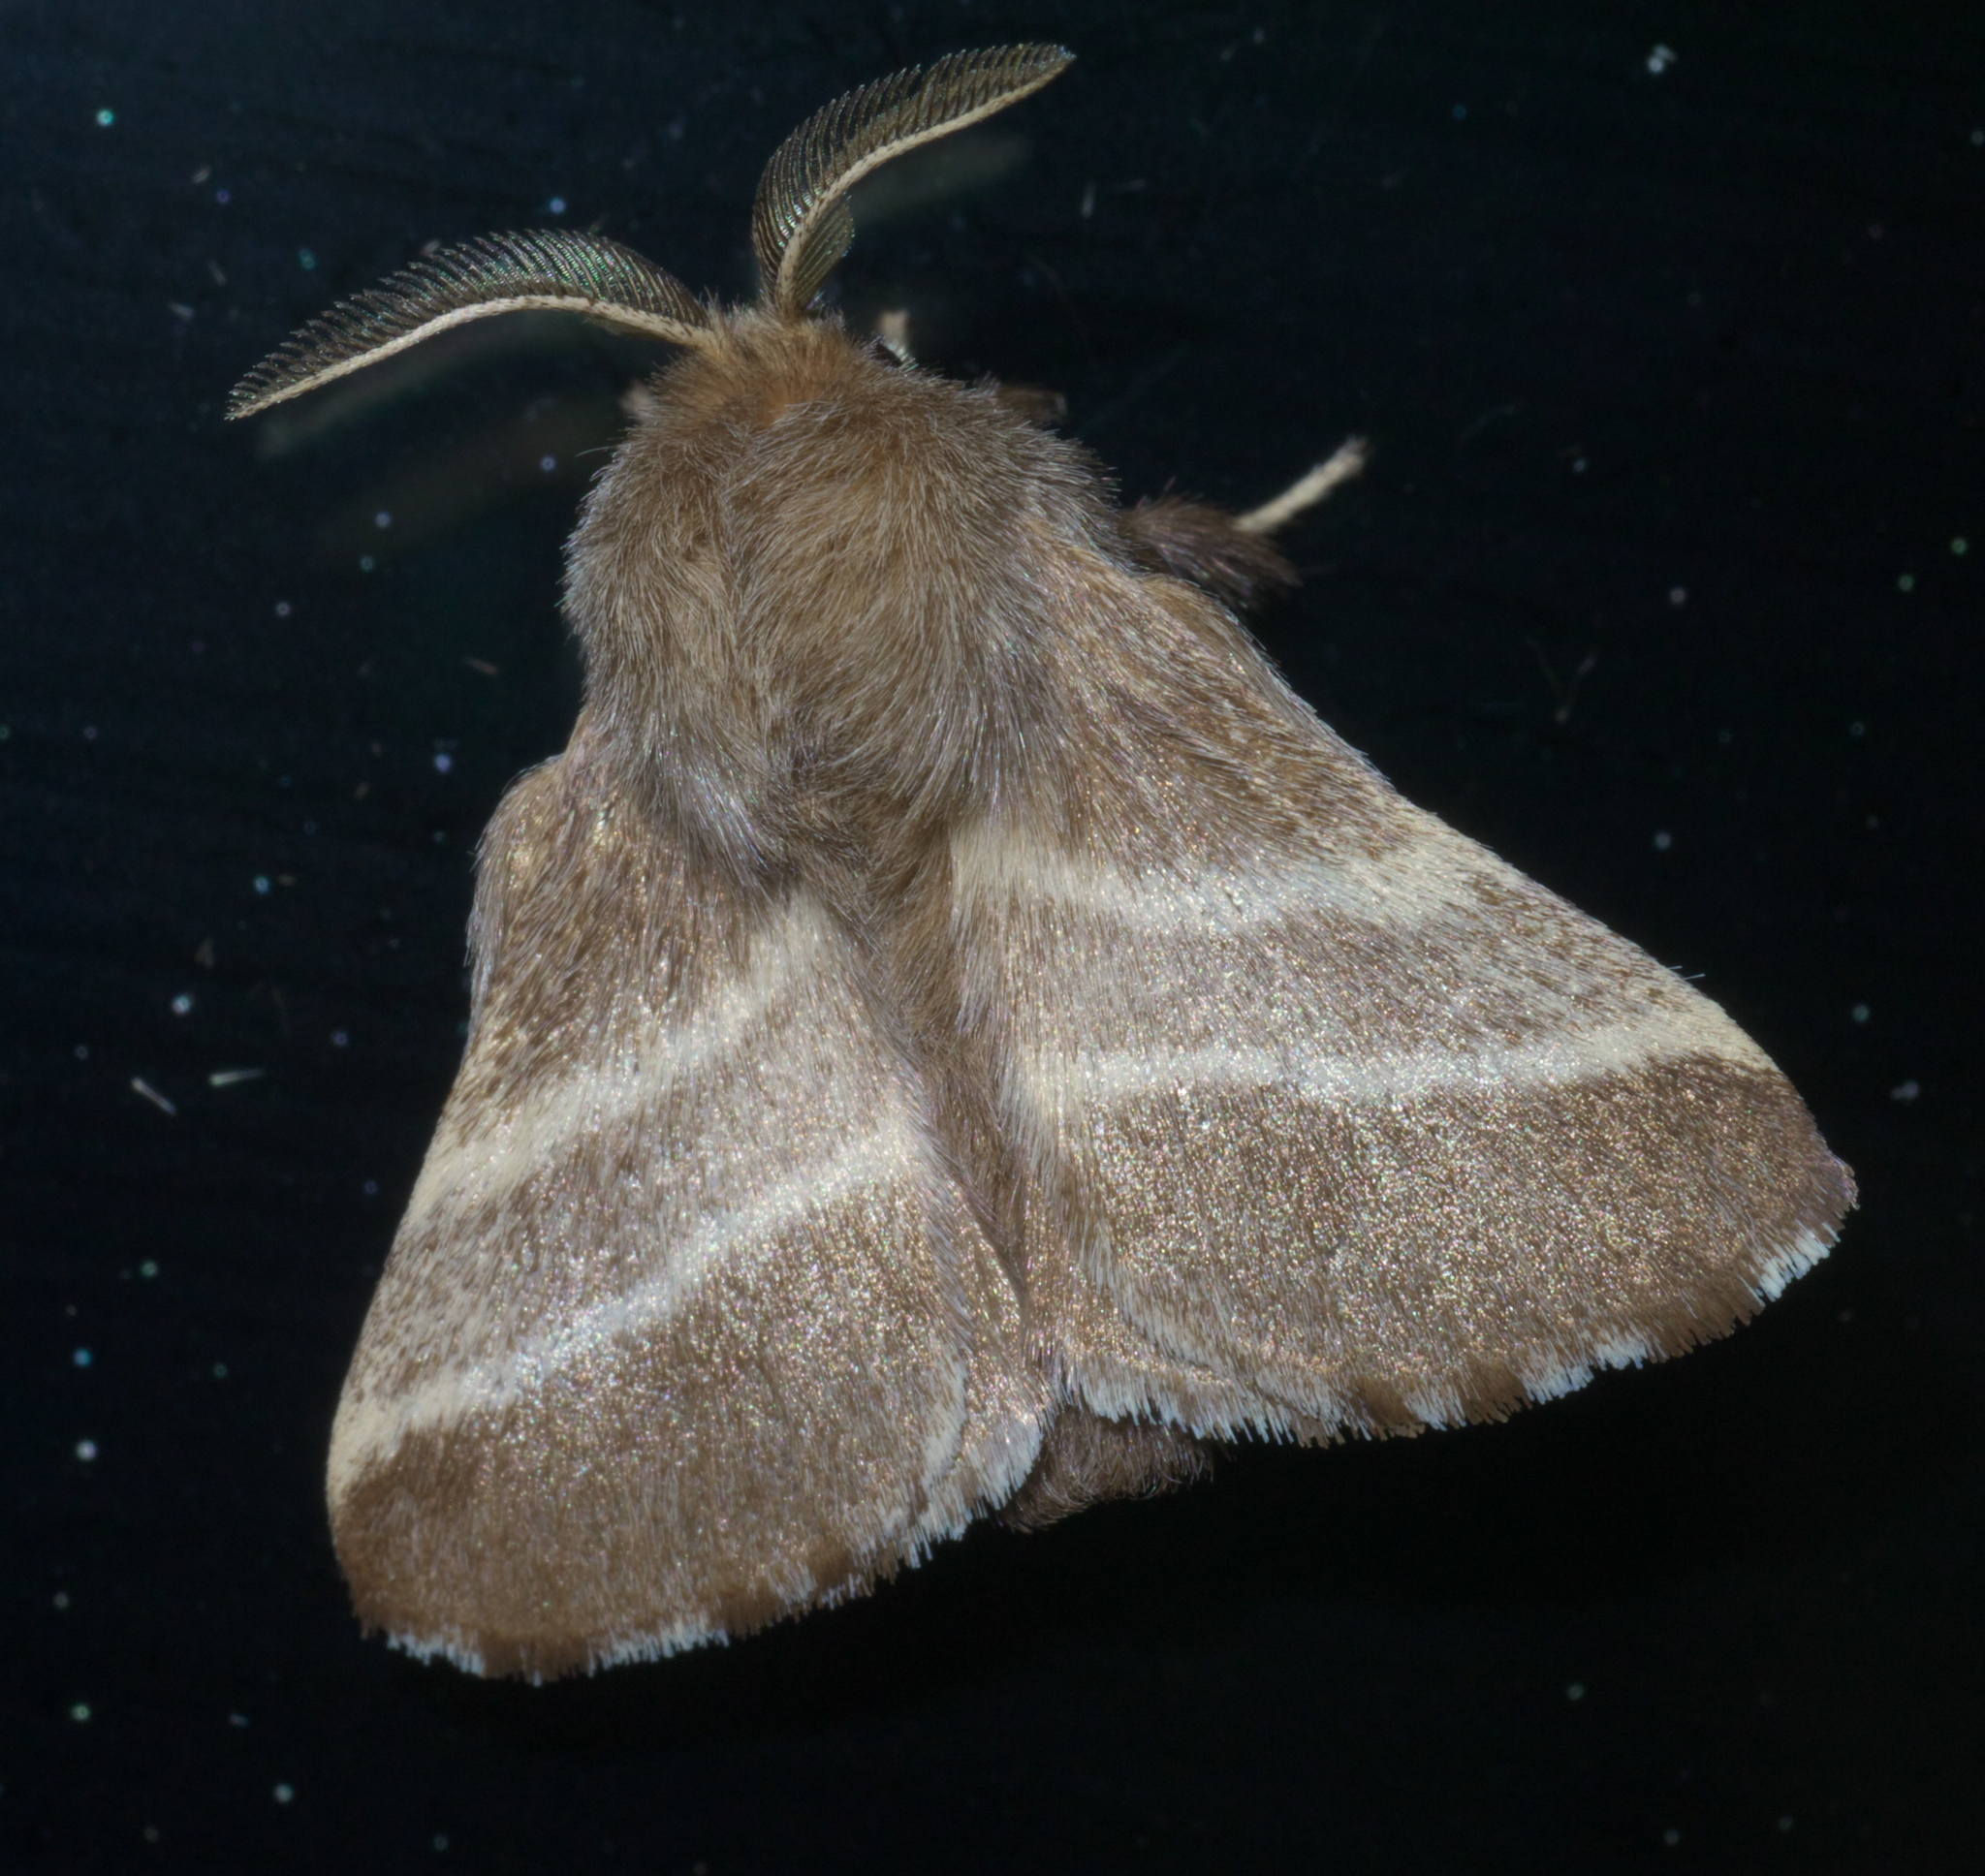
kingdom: Animalia
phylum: Arthropoda
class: Insecta
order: Lepidoptera
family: Lasiocampidae
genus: Malacosoma
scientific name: Malacosoma americana
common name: Eastern tent caterpillar moth
